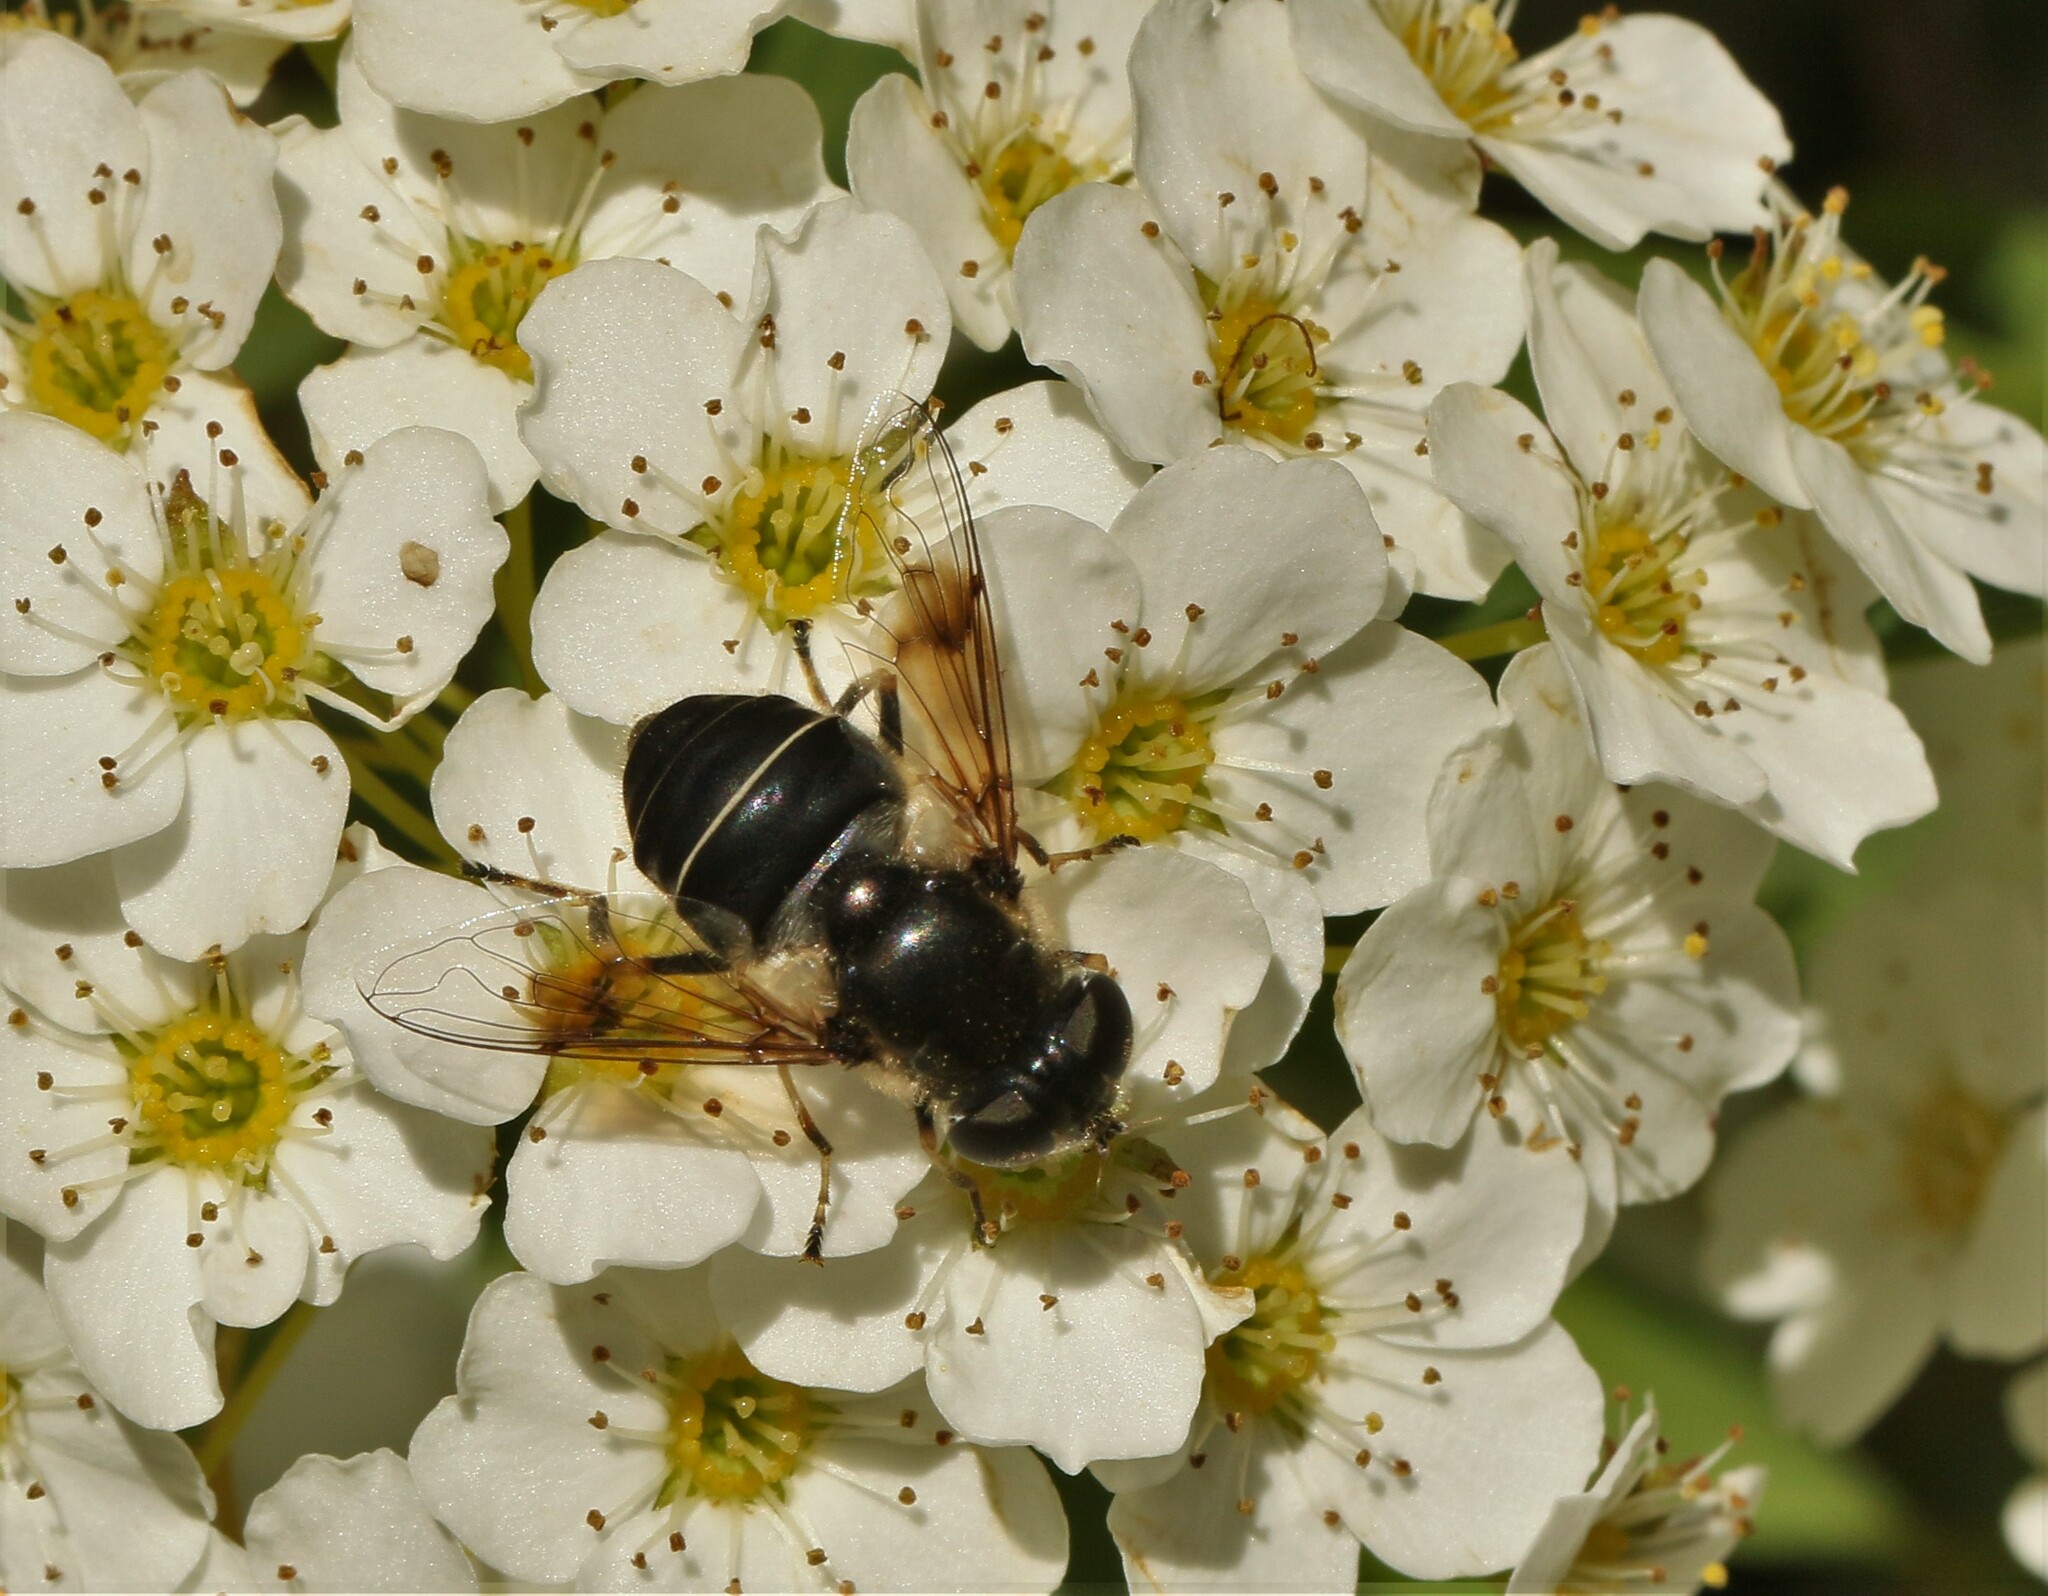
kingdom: Animalia
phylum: Arthropoda
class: Insecta
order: Diptera
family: Syrphidae
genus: Eristalis
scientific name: Eristalis obscura
